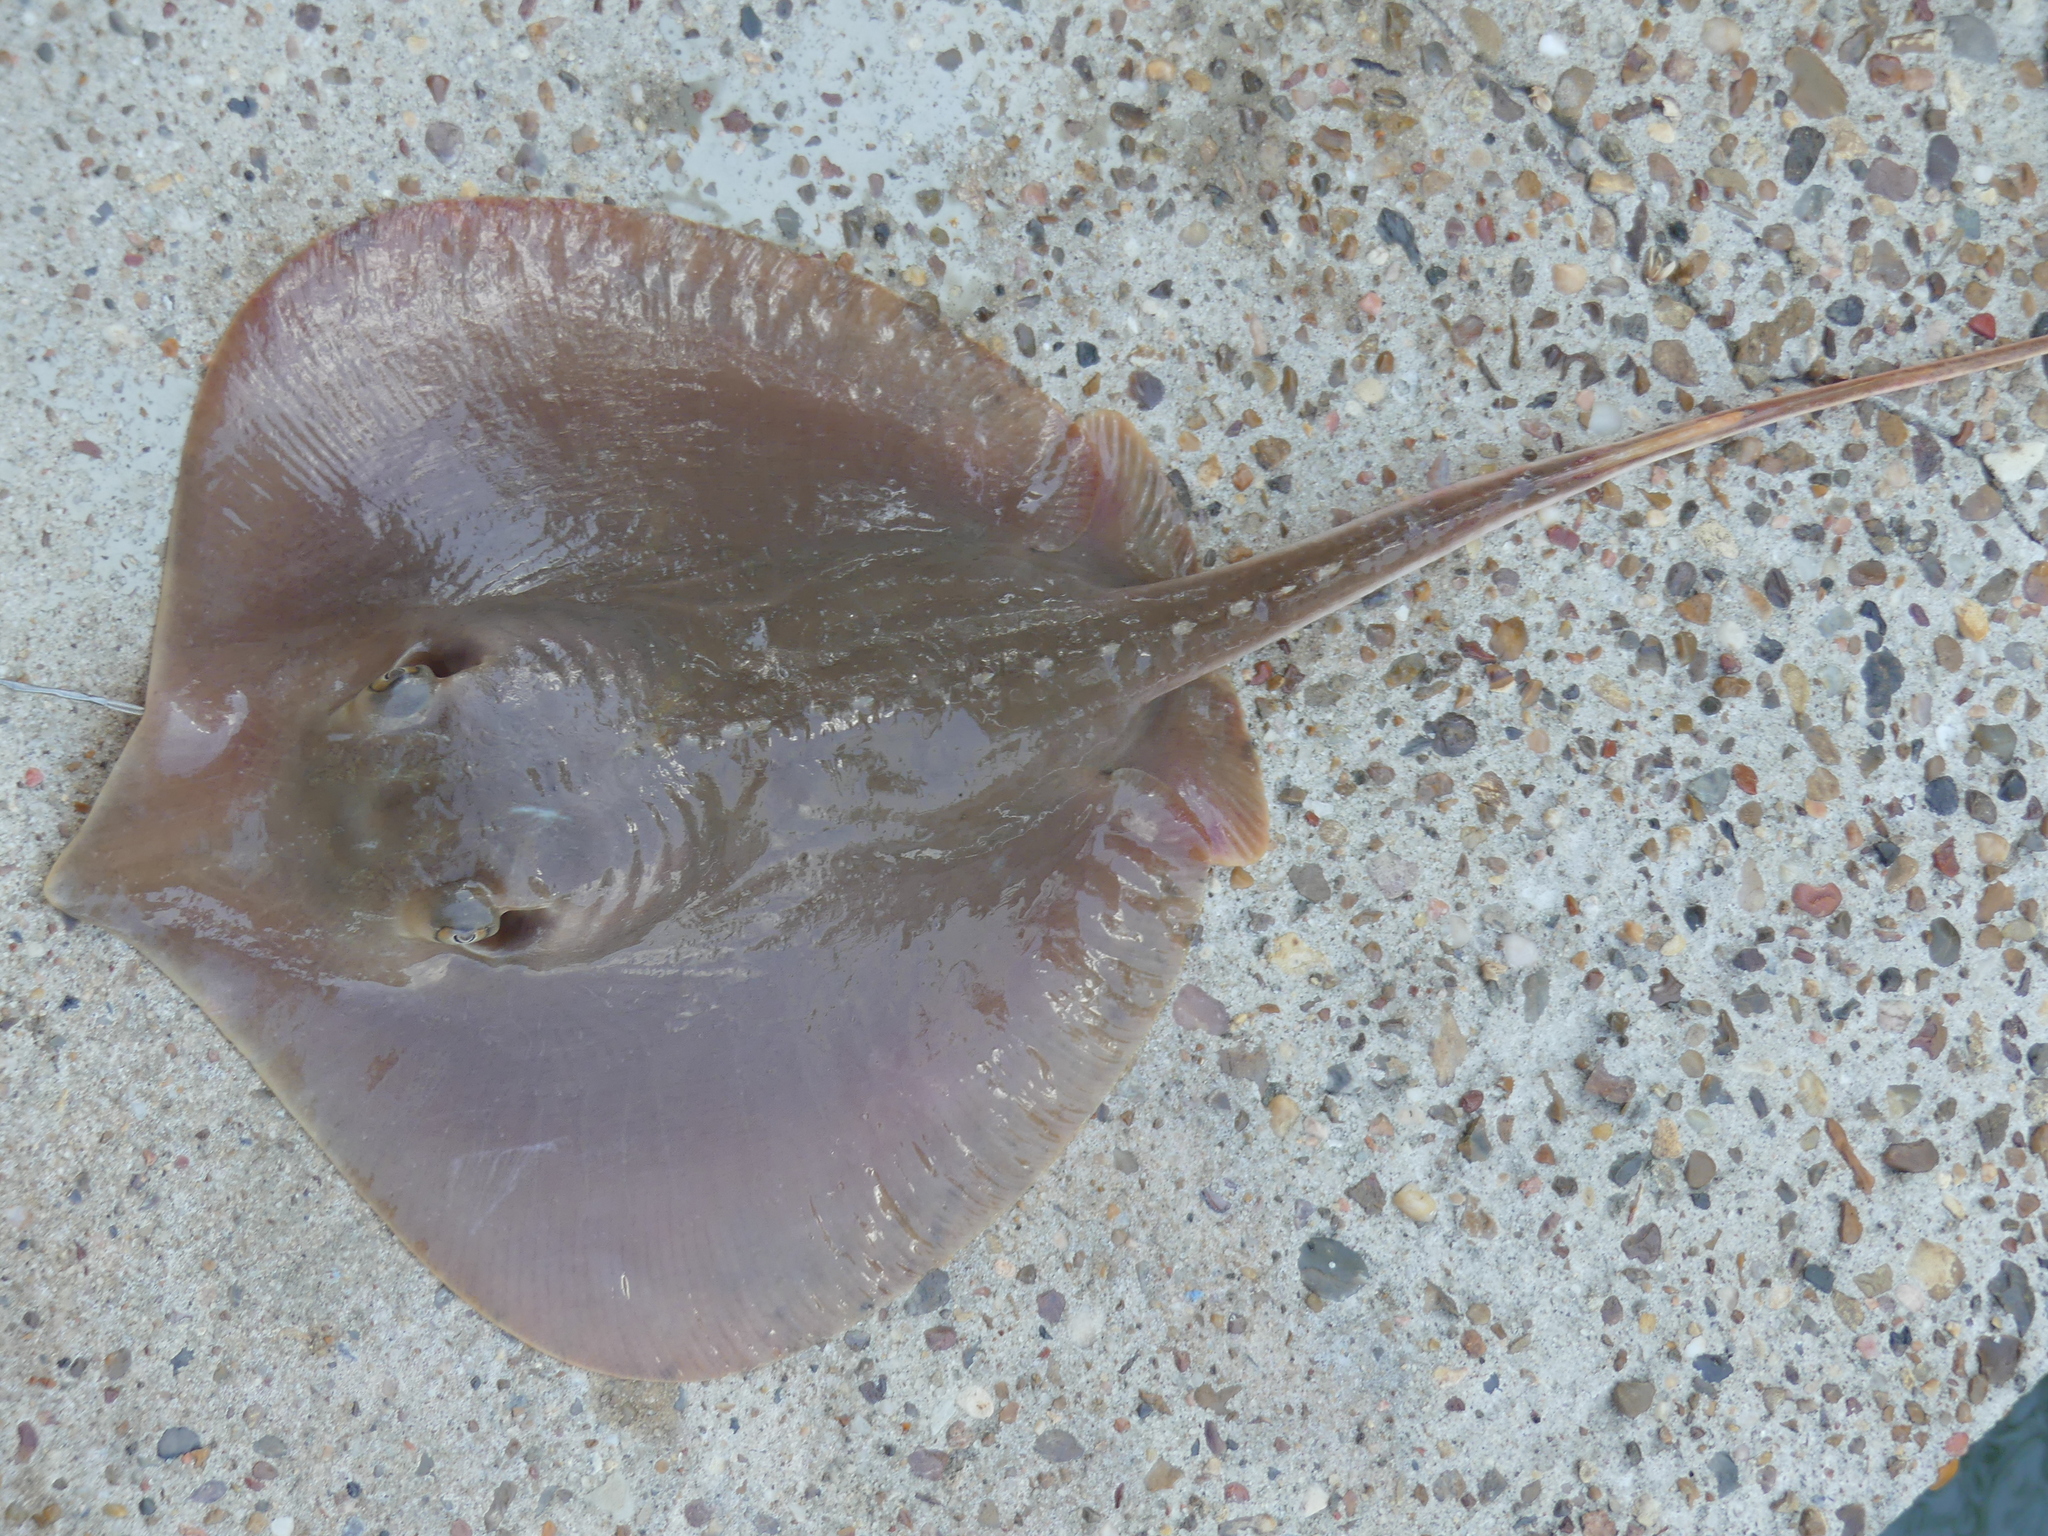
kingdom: Animalia
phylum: Chordata
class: Elasmobranchii
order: Myliobatiformes
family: Dasyatidae
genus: Hypanus
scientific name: Hypanus sabinus
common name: Atlantic stingray
